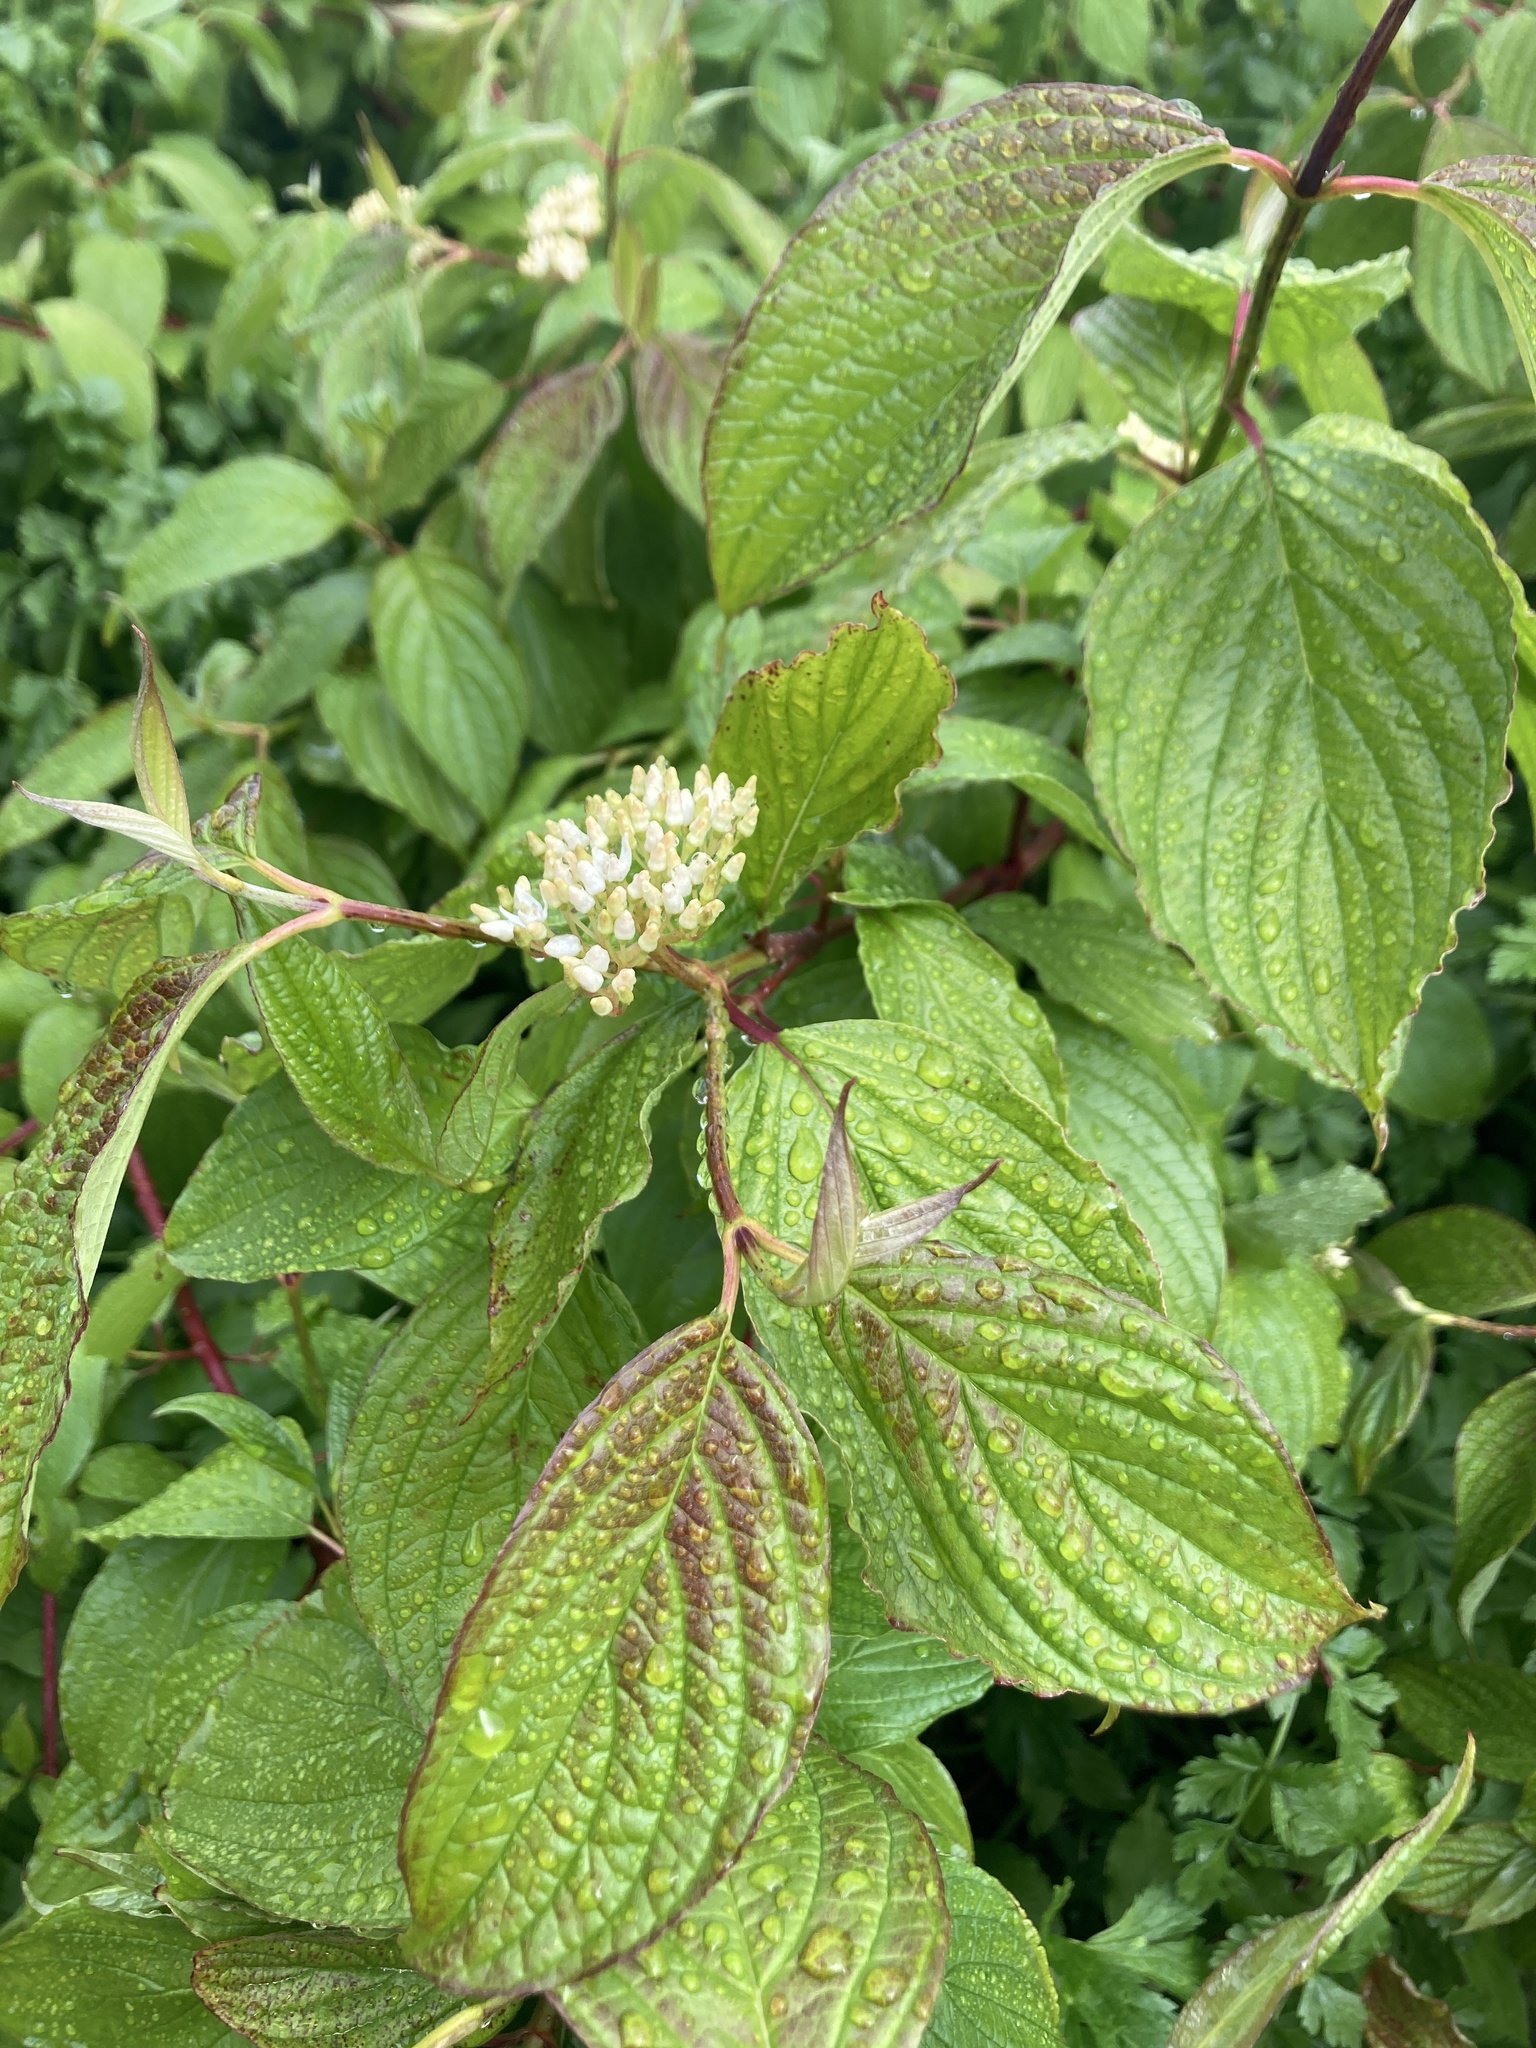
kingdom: Plantae
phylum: Tracheophyta
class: Magnoliopsida
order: Cornales
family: Cornaceae
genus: Cornus
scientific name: Cornus sanguinea
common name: Dogwood
